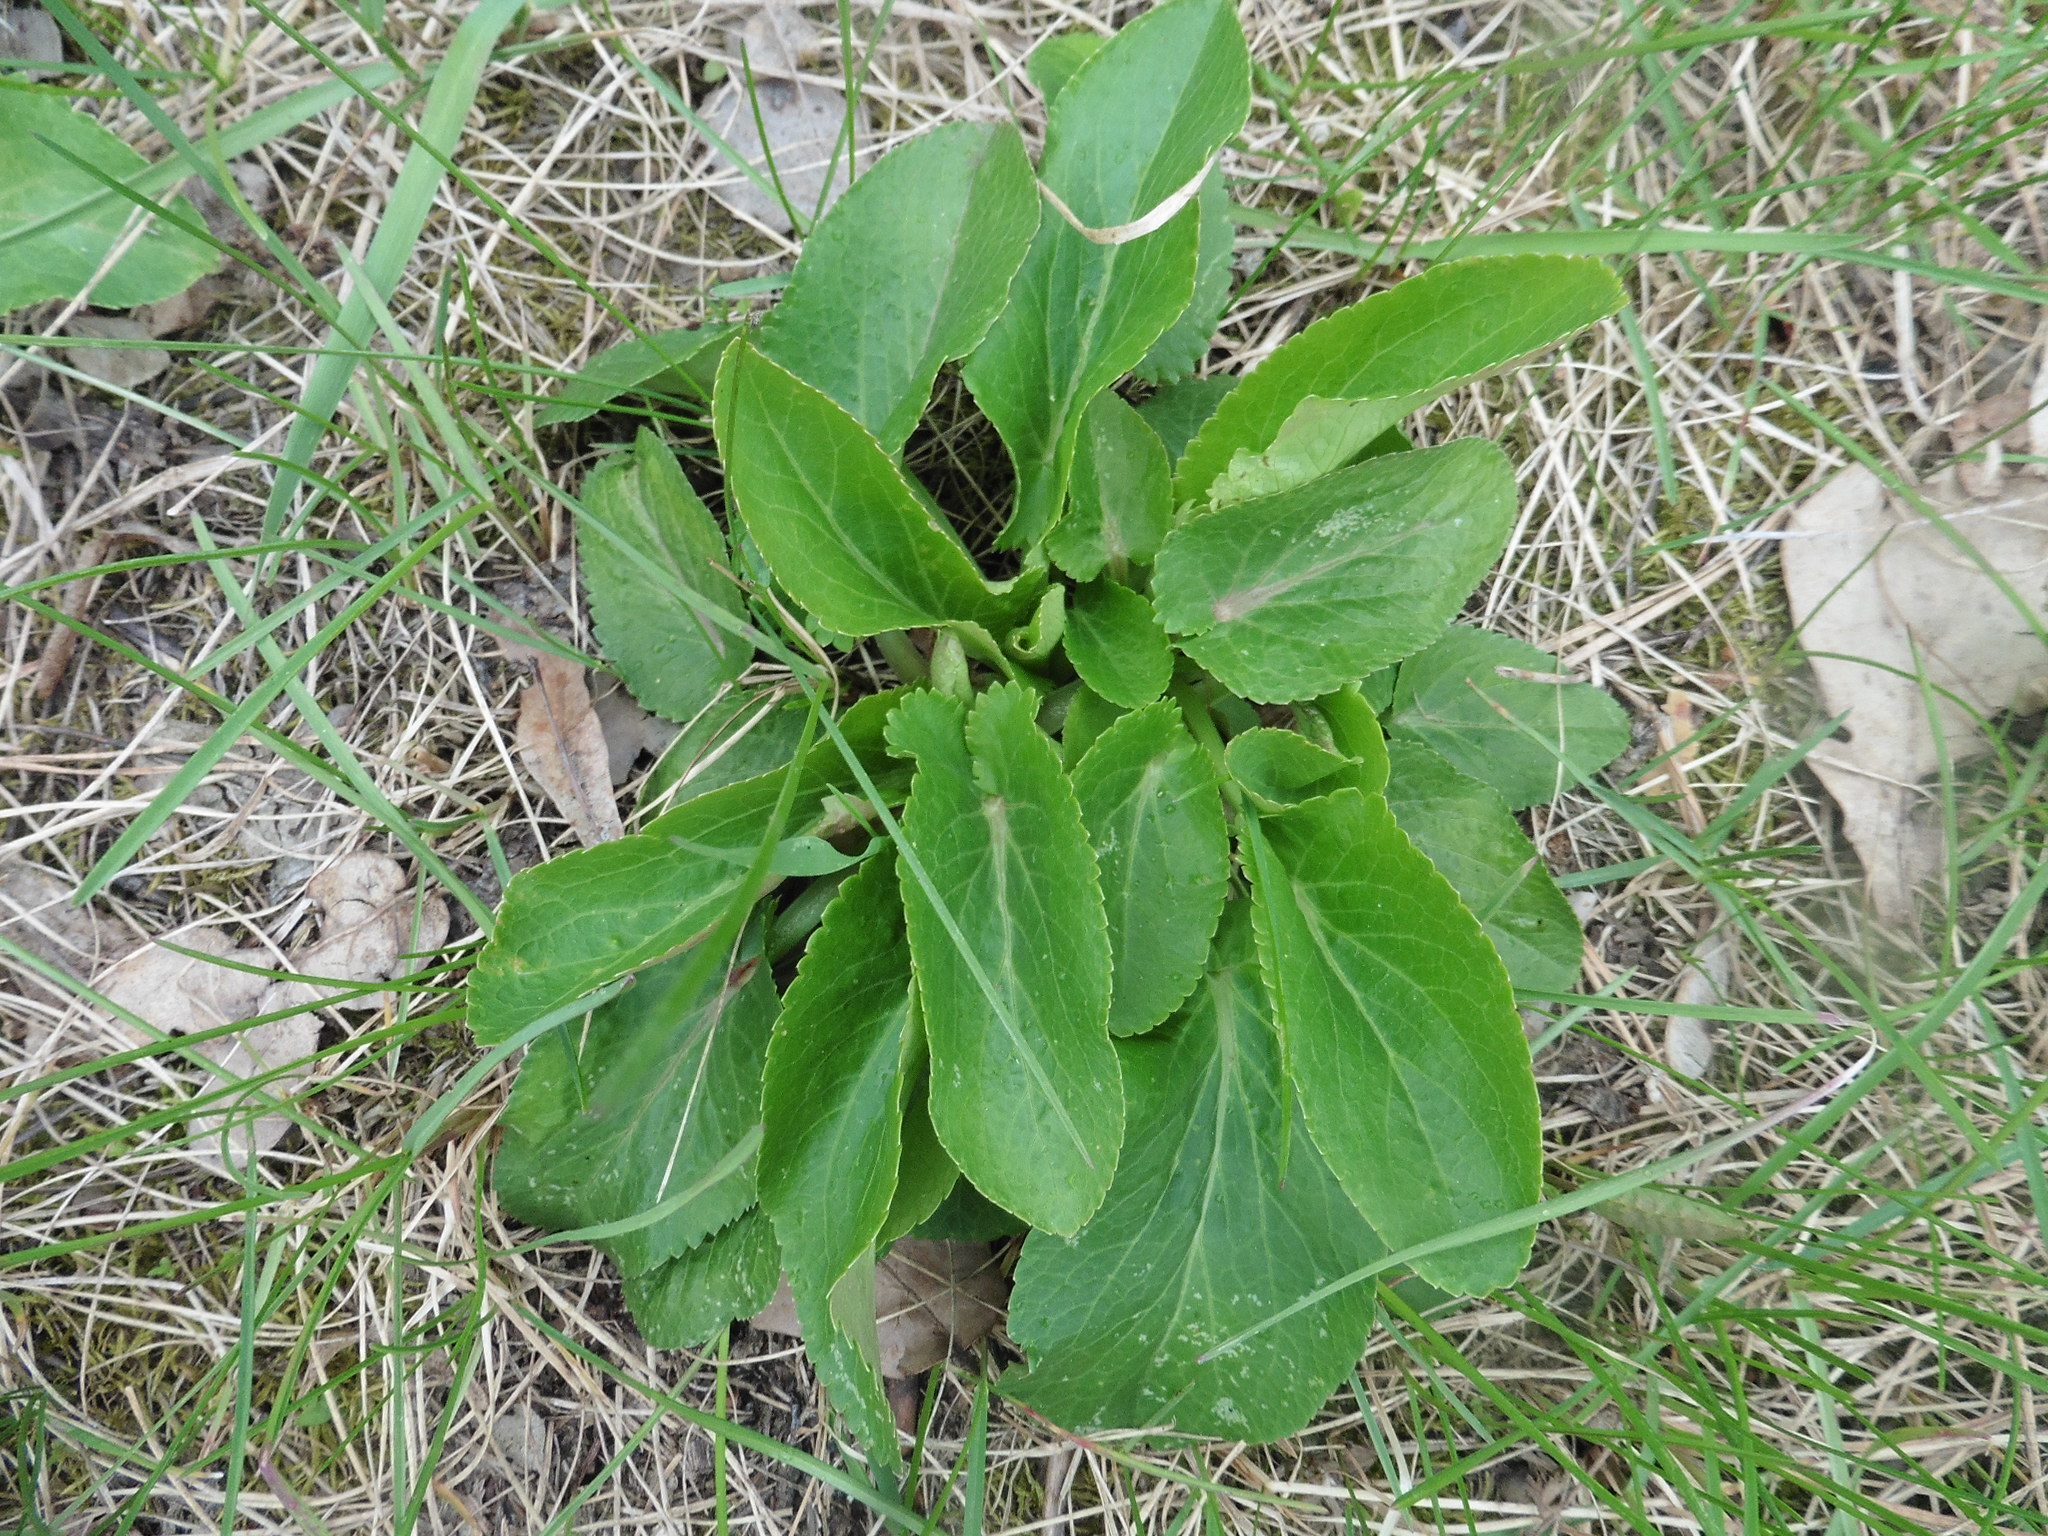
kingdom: Plantae
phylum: Tracheophyta
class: Magnoliopsida
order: Apiales
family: Apiaceae
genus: Eryngium
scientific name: Eryngium planum
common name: Blue eryngo
